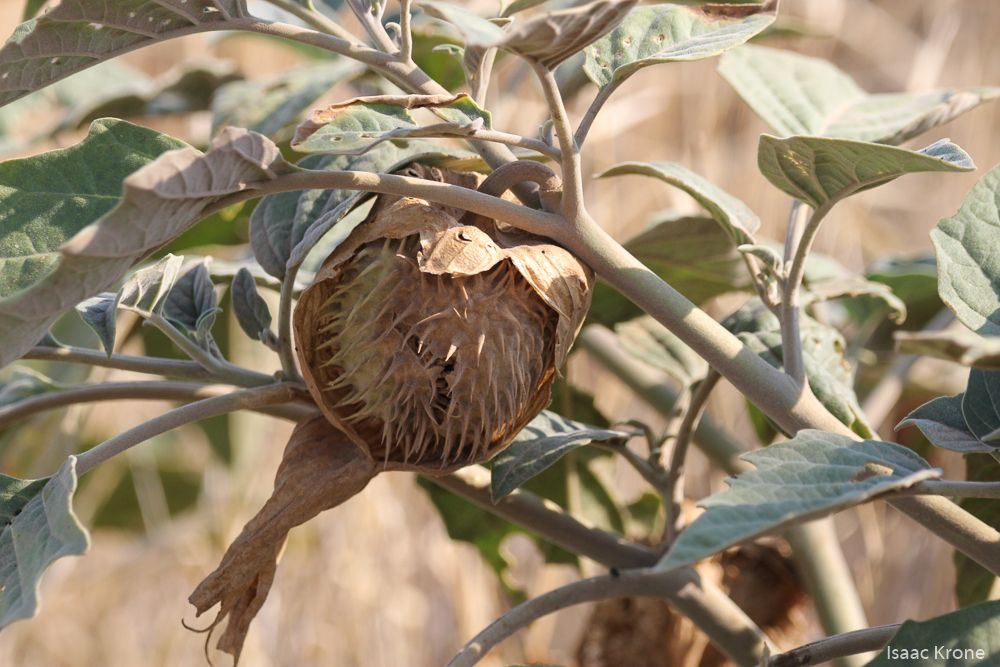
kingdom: Plantae
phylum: Tracheophyta
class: Magnoliopsida
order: Solanales
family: Solanaceae
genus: Datura
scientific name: Datura wrightii
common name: Sacred thorn-apple
